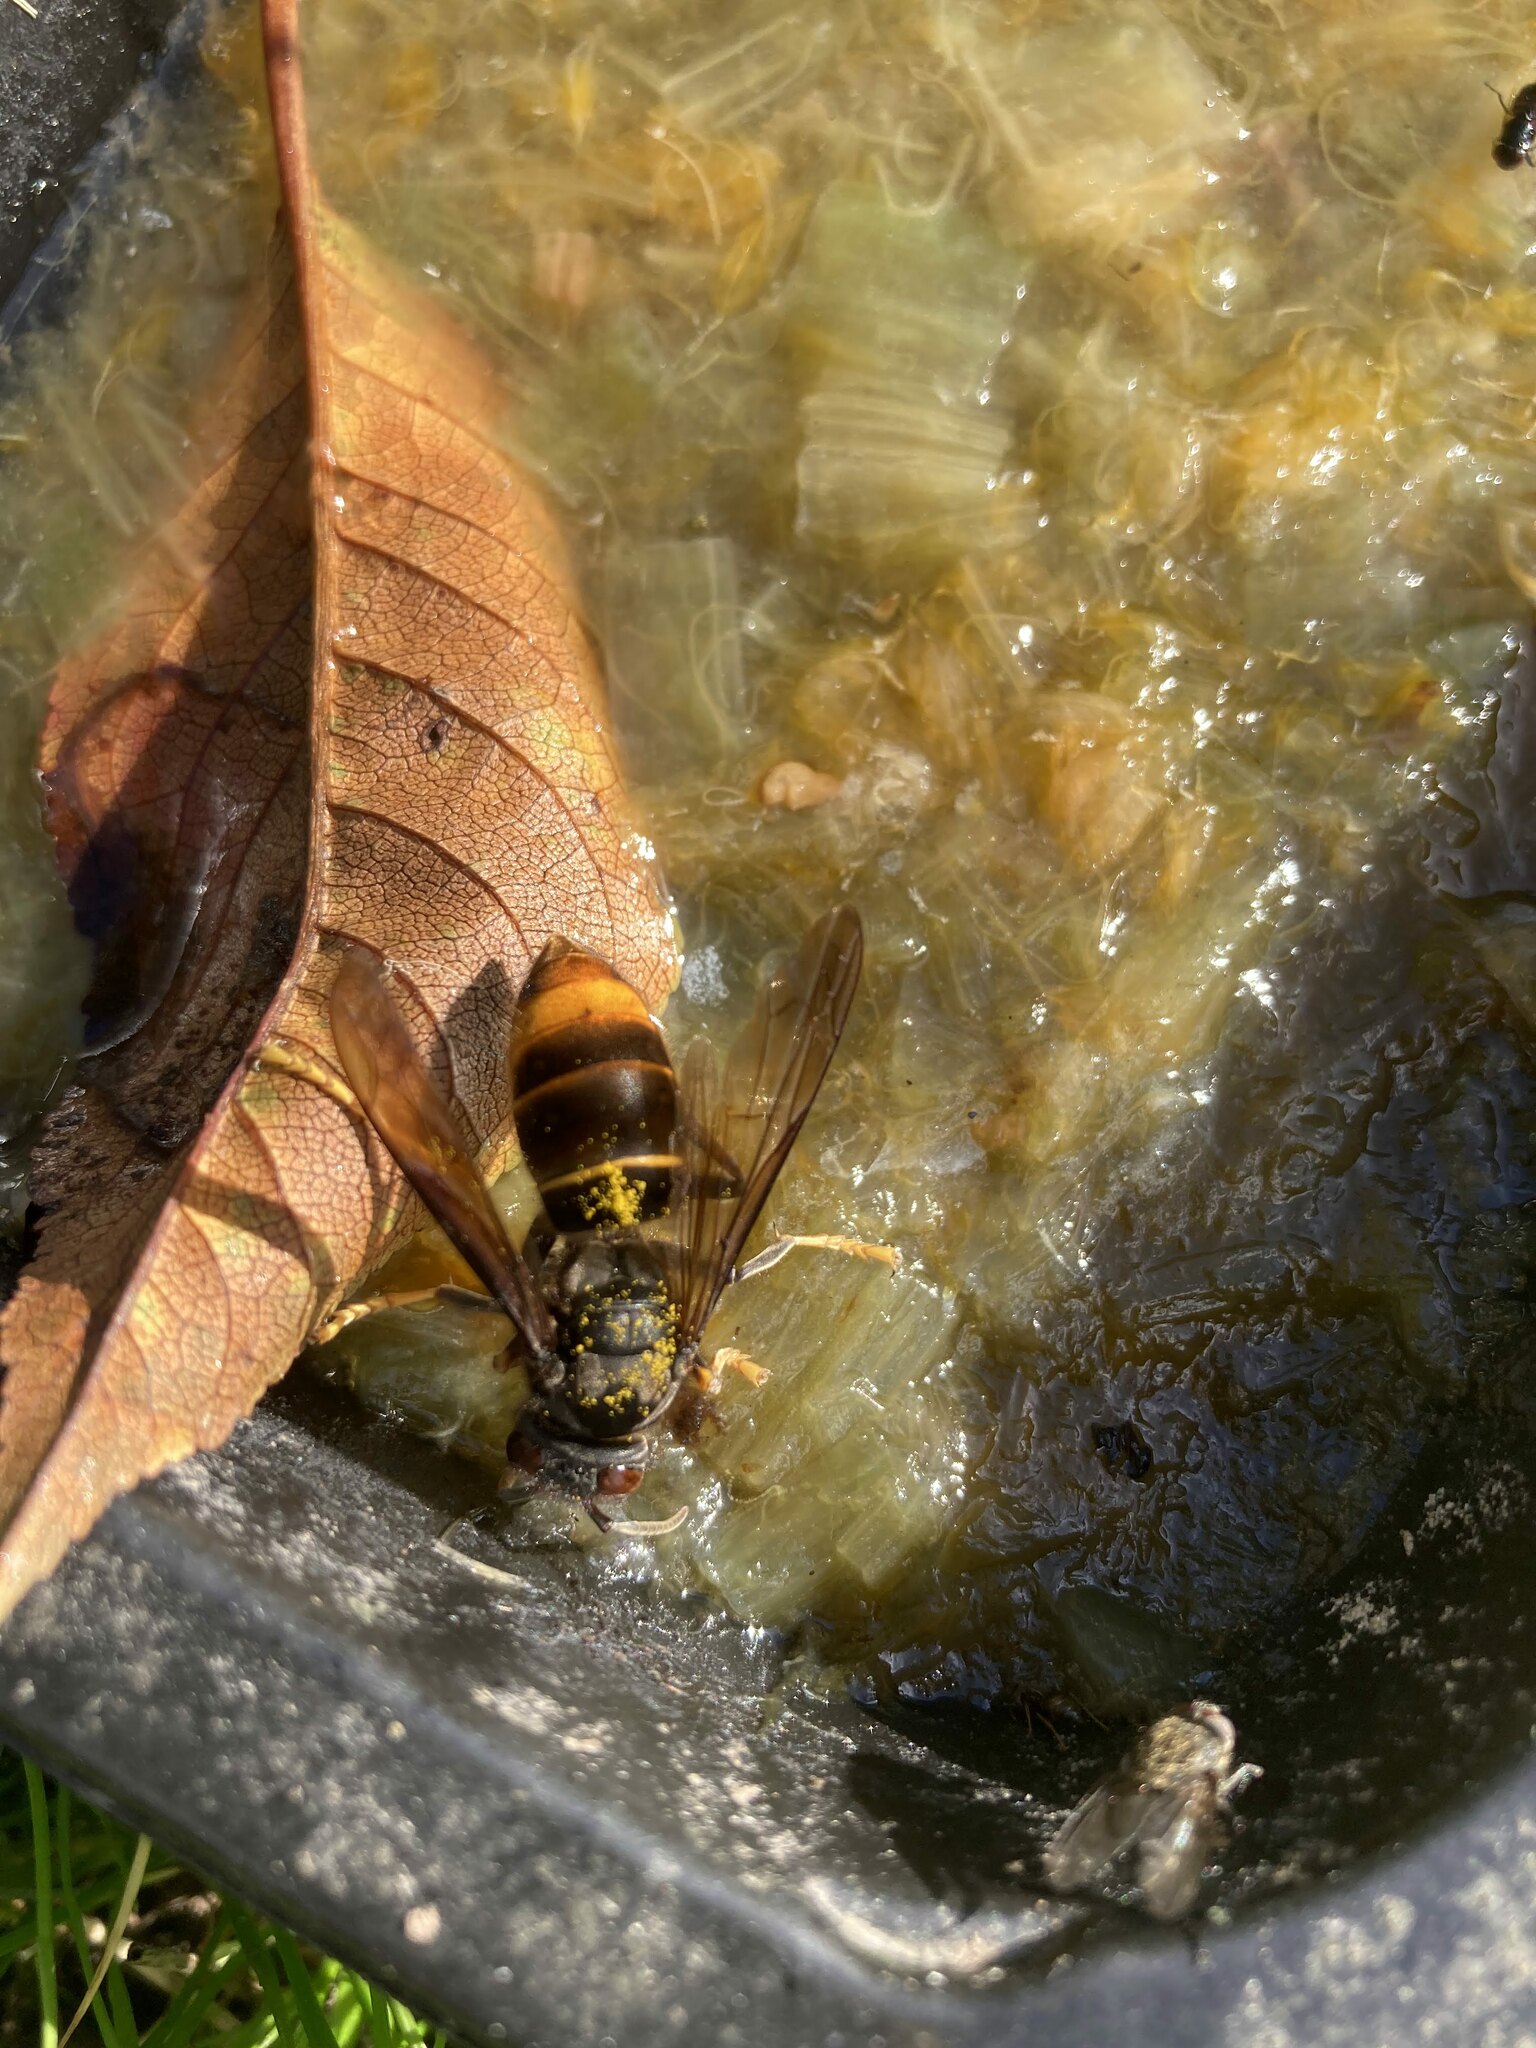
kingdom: Animalia
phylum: Arthropoda
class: Insecta
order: Hymenoptera
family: Vespidae
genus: Vespa
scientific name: Vespa velutina
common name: Asian hornet
